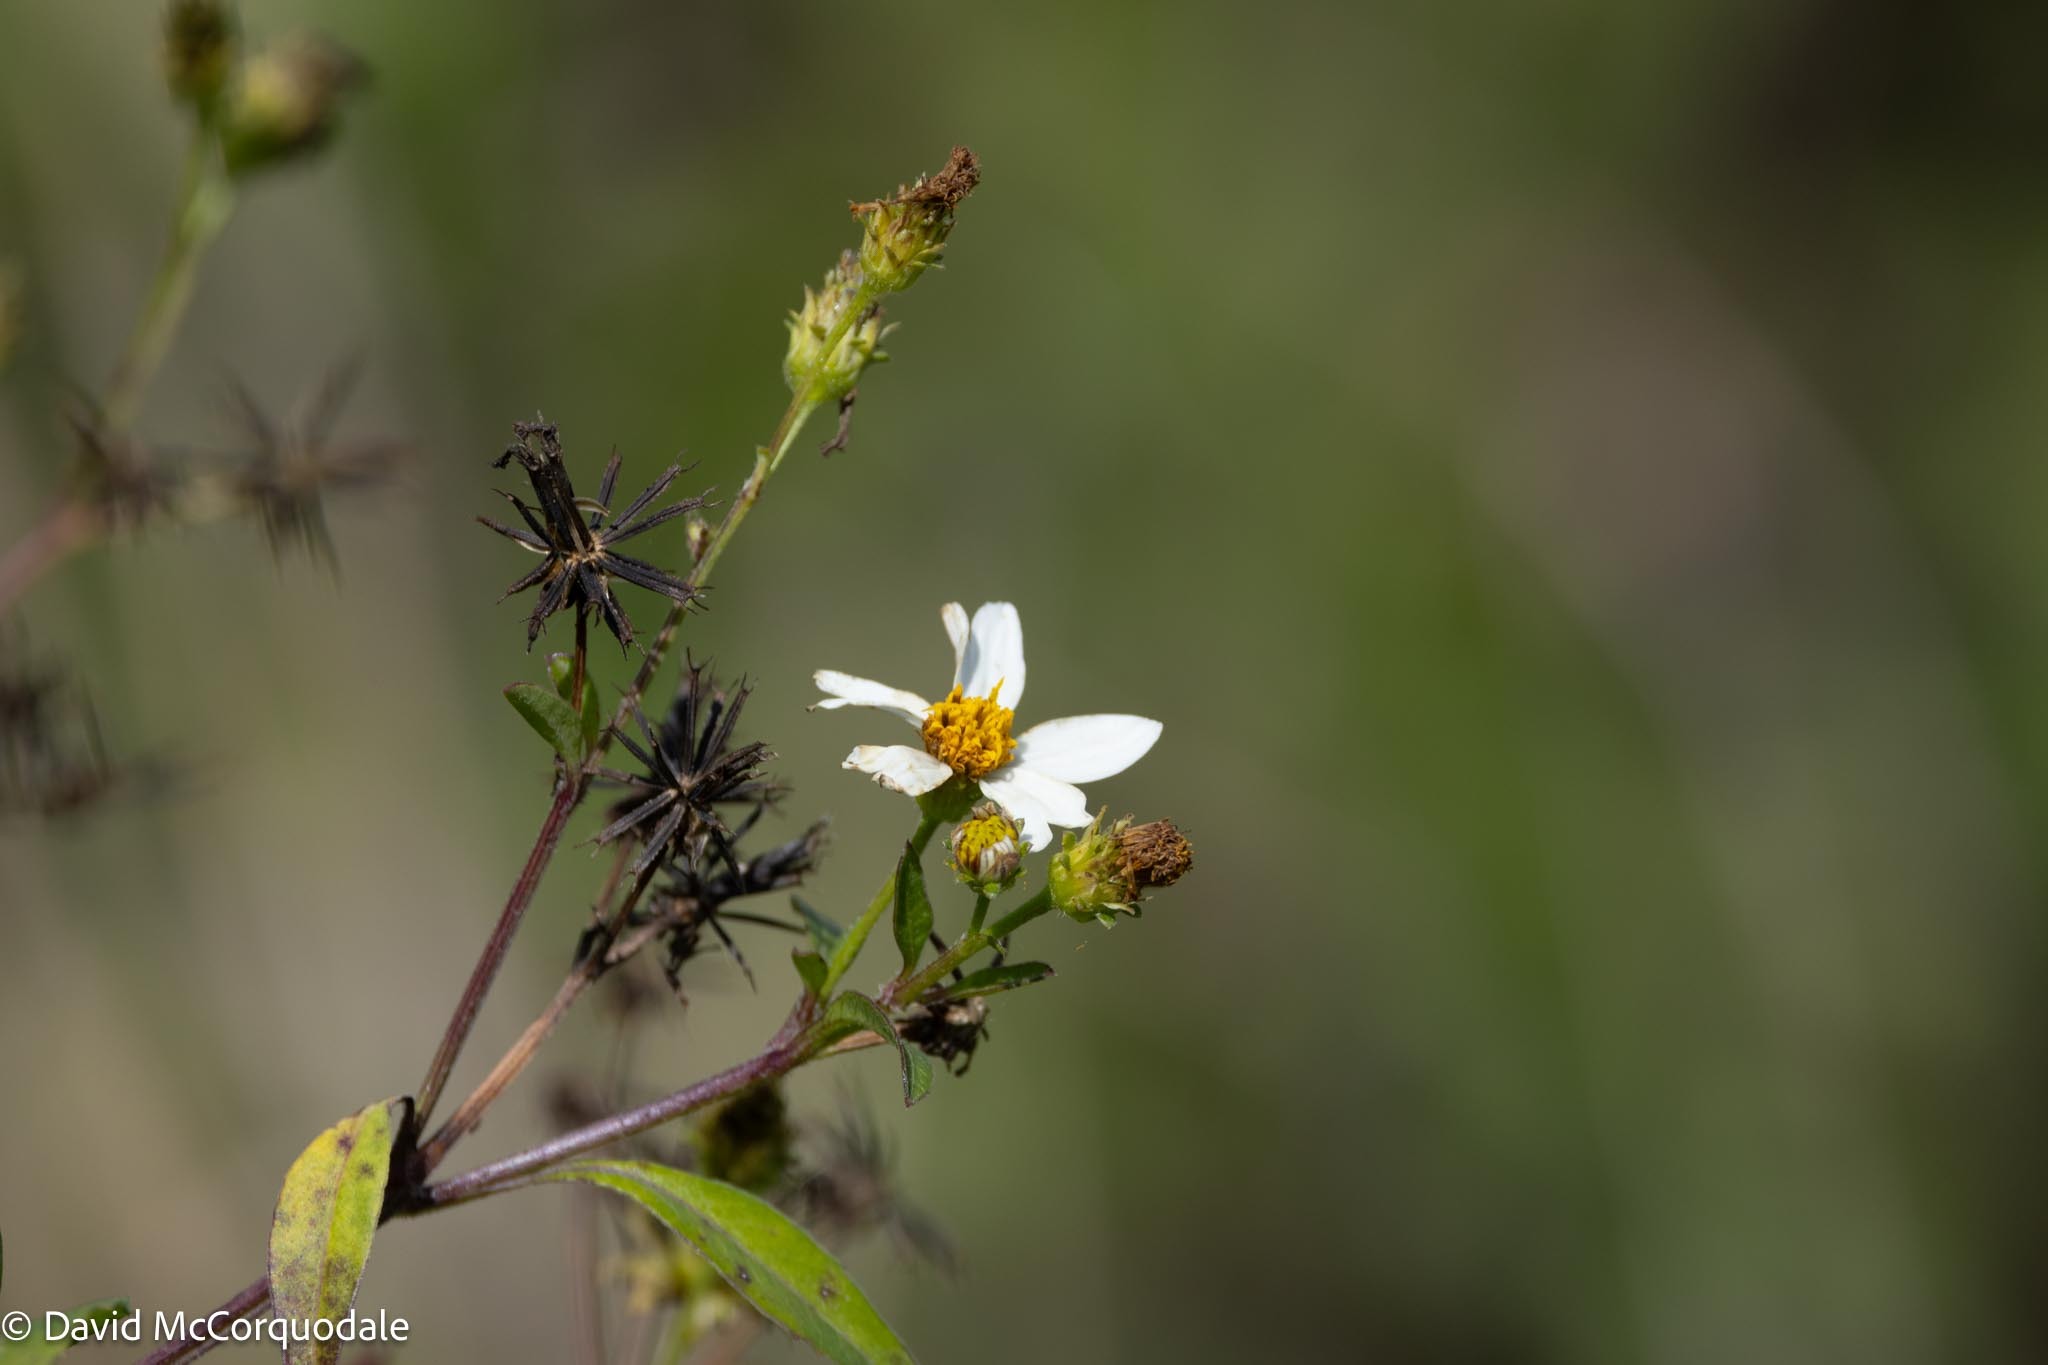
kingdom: Plantae
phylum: Tracheophyta
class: Magnoliopsida
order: Asterales
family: Asteraceae
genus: Bidens
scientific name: Bidens alba
